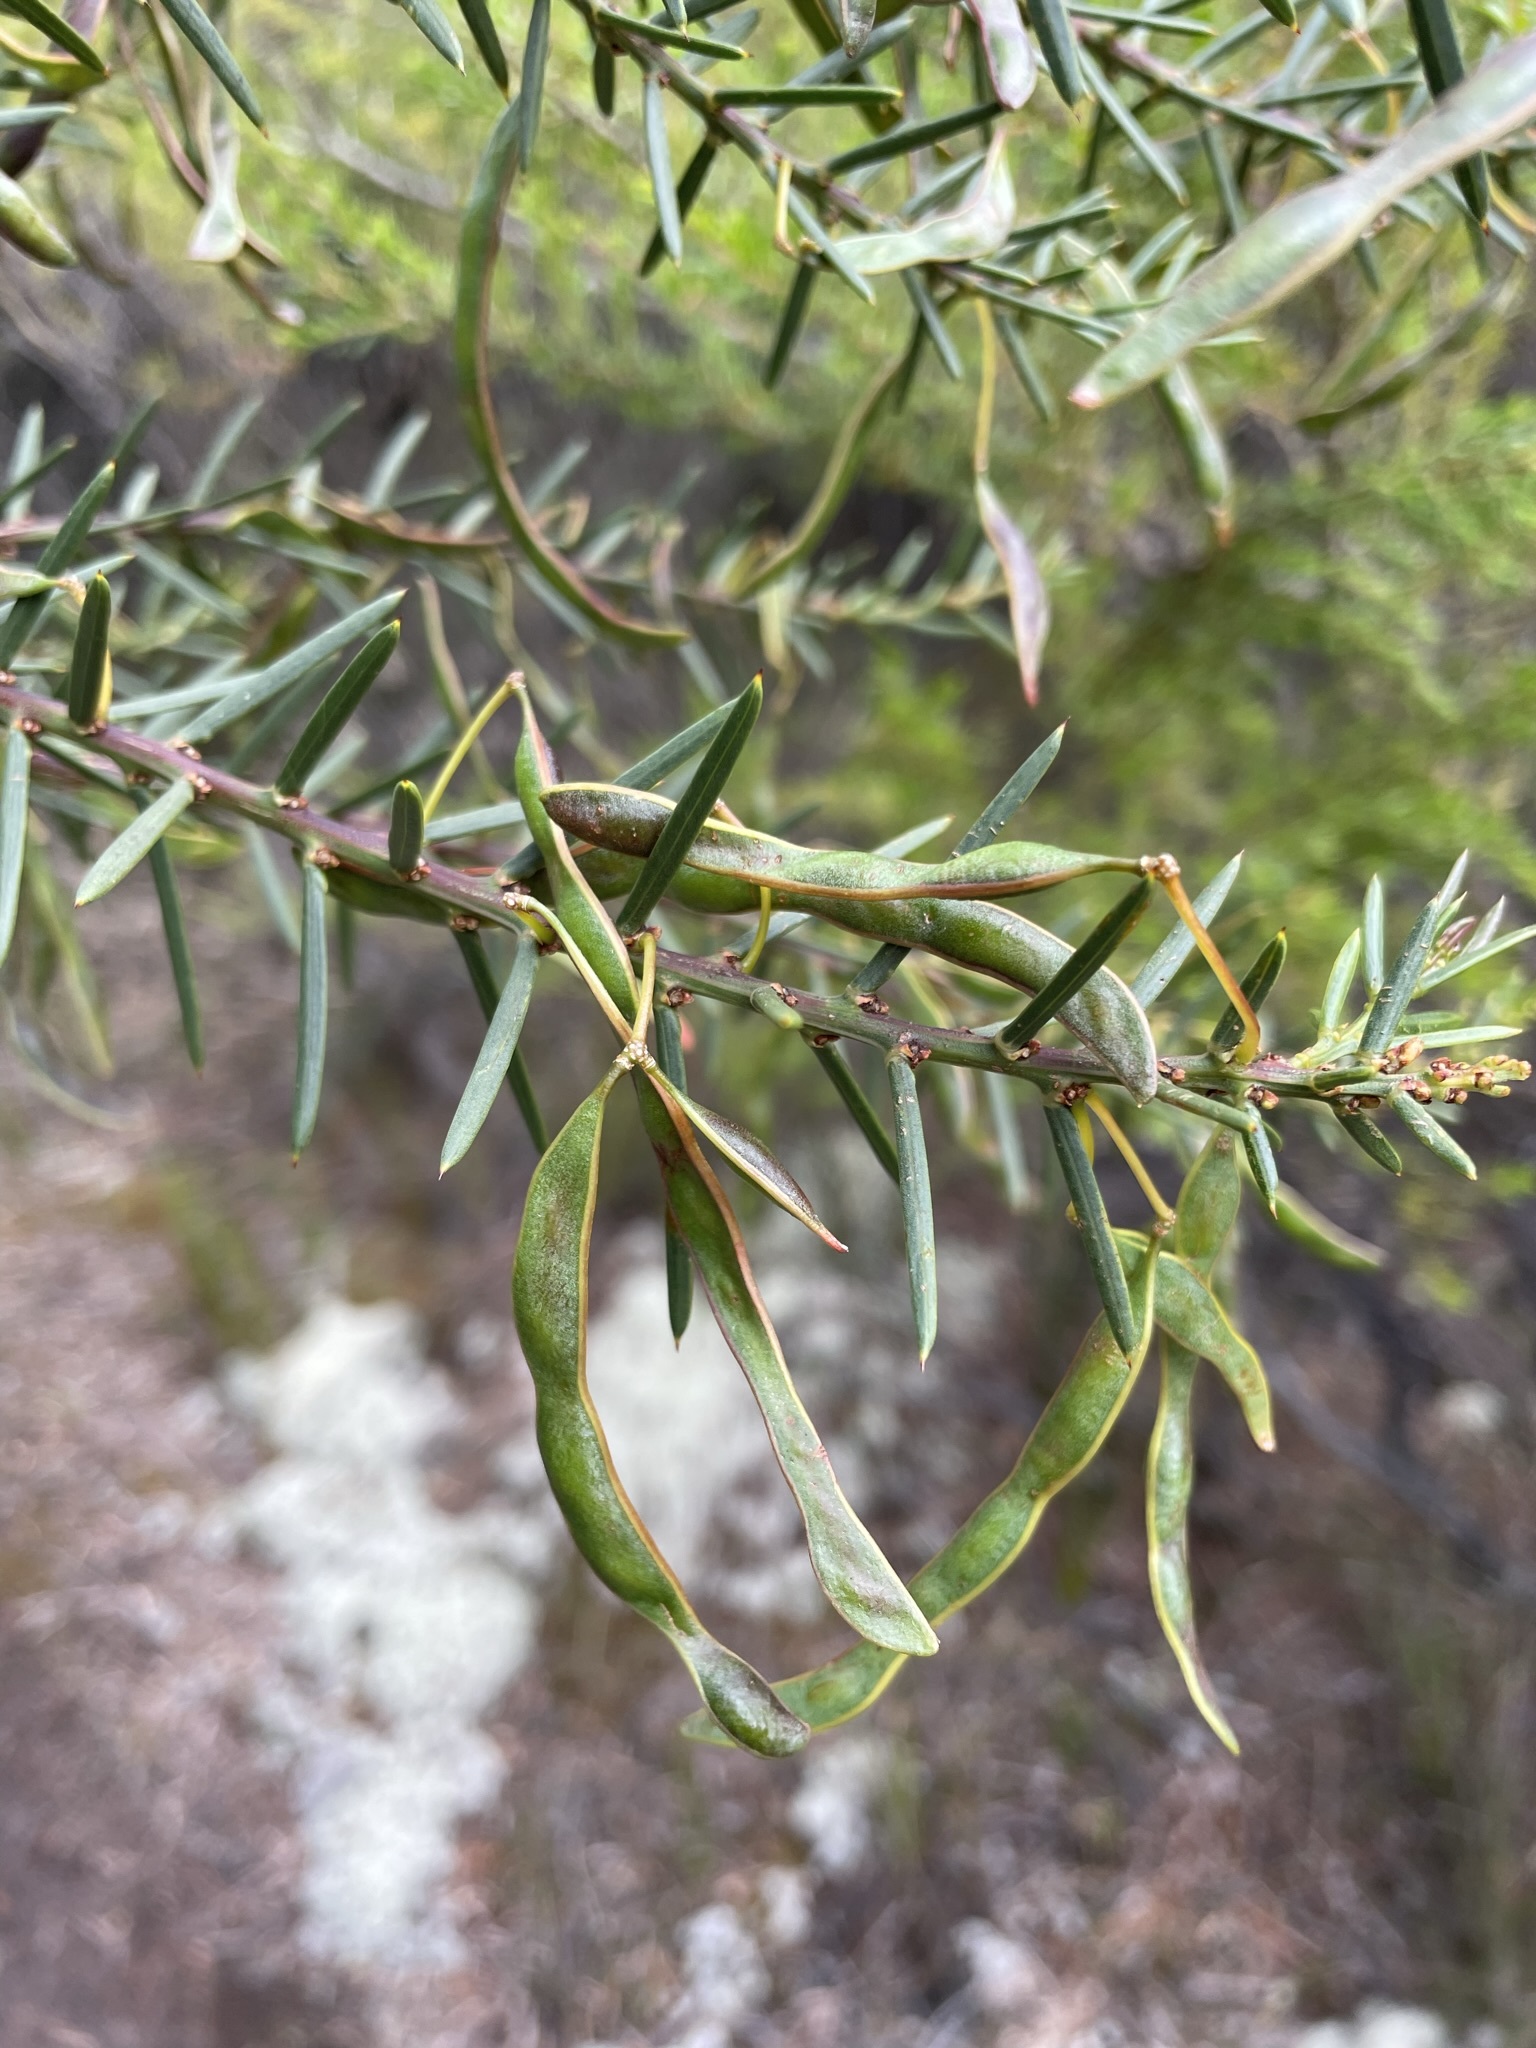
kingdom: Plantae
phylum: Tracheophyta
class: Magnoliopsida
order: Fabales
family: Fabaceae
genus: Acacia
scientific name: Acacia genistifolia
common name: Early wattle
